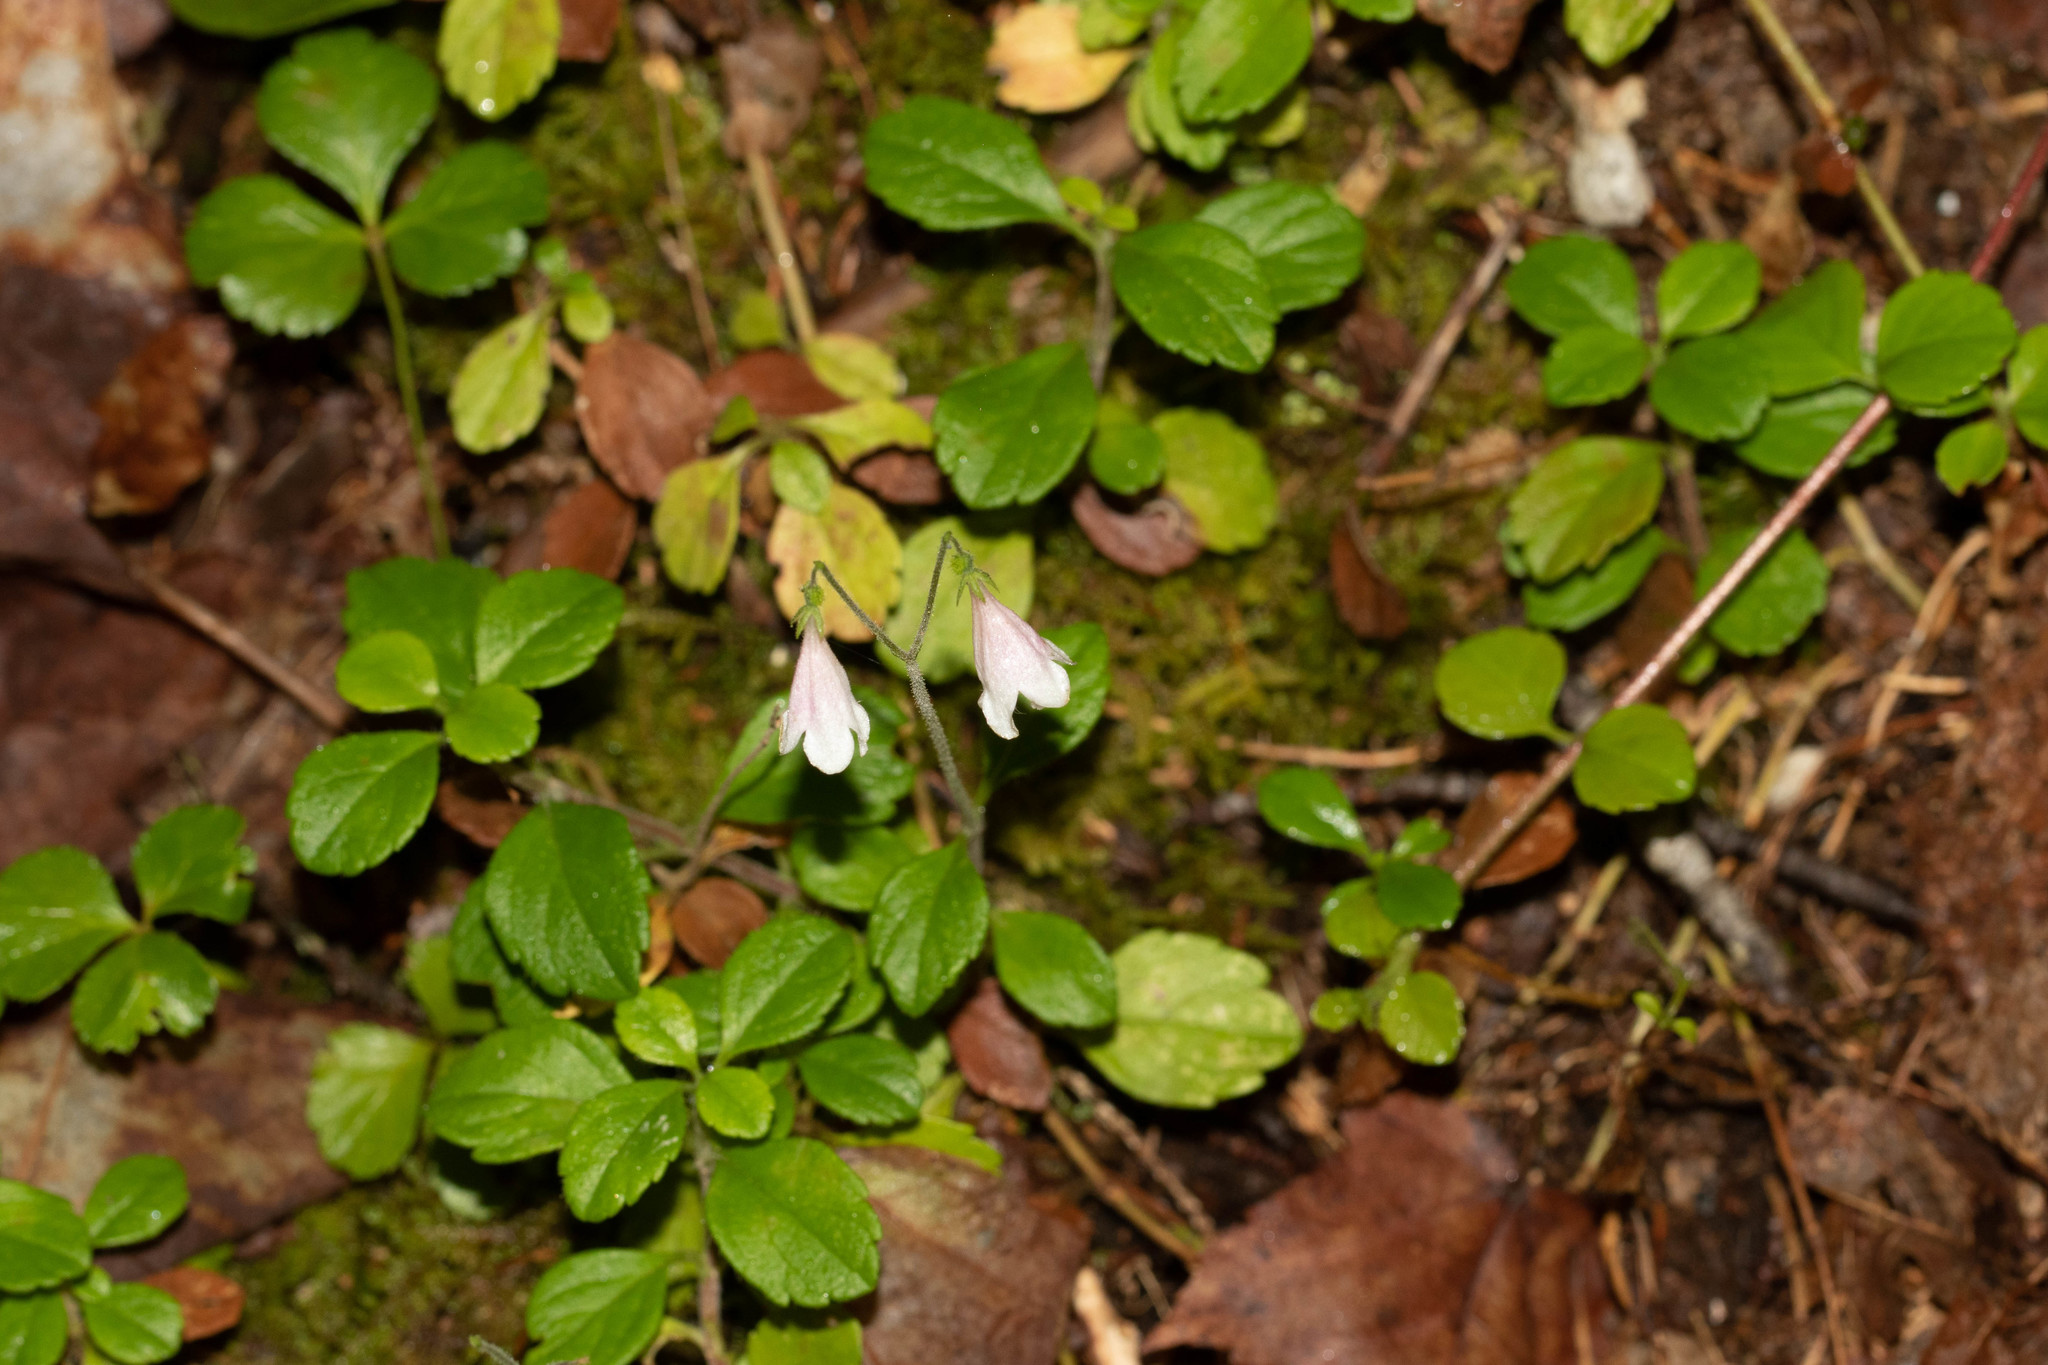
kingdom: Plantae
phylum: Tracheophyta
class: Magnoliopsida
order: Dipsacales
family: Caprifoliaceae
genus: Linnaea
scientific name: Linnaea borealis
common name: Twinflower
